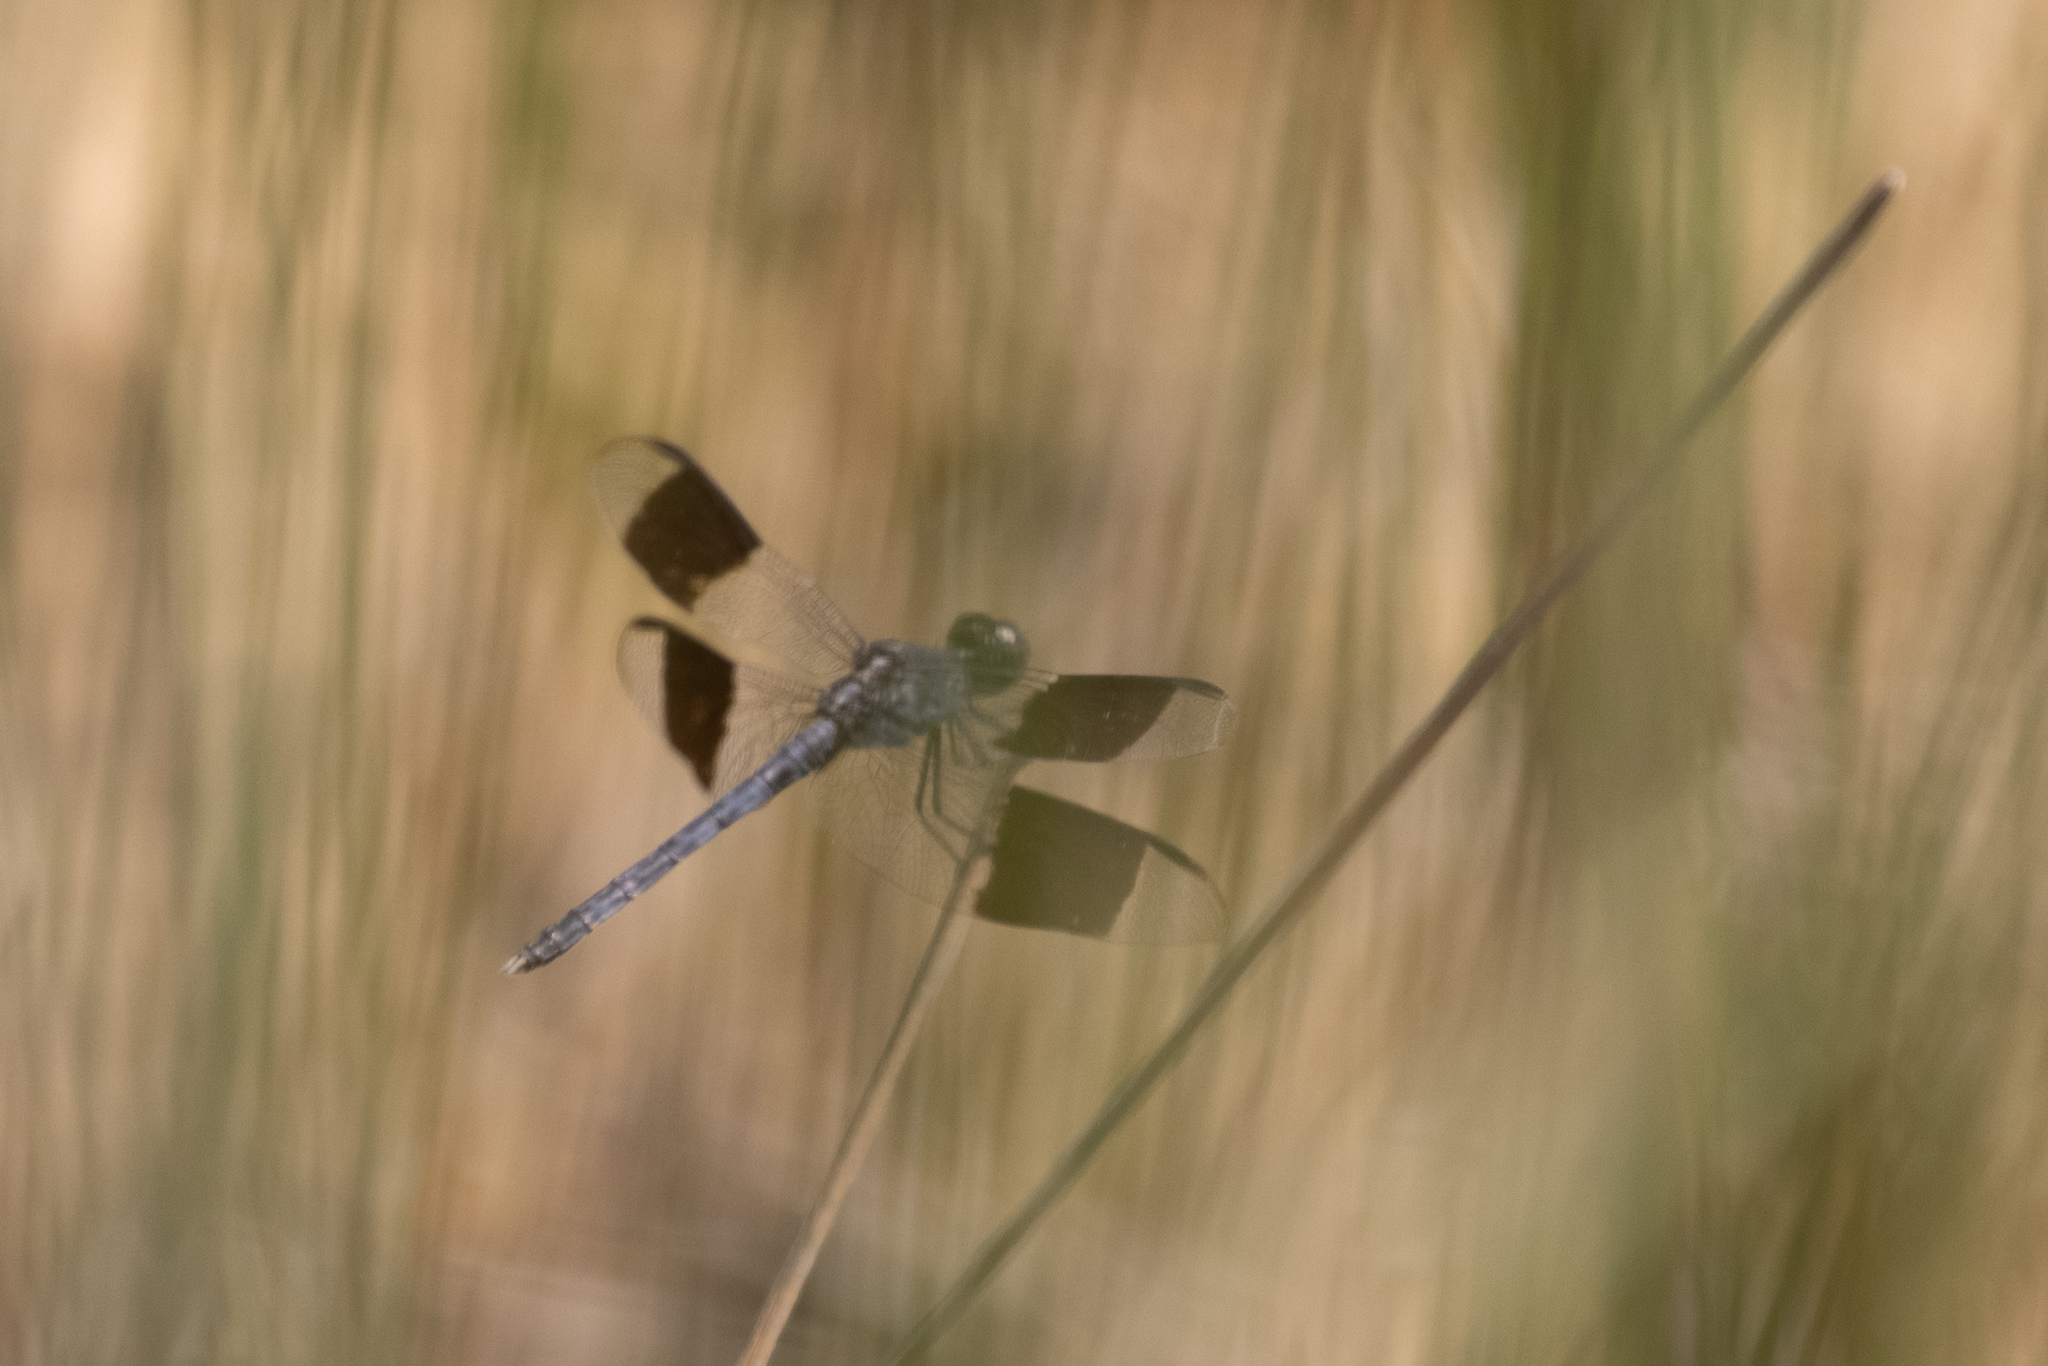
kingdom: Animalia
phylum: Arthropoda
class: Insecta
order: Odonata
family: Libellulidae
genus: Erythrodiplax
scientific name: Erythrodiplax umbrata
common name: Band-winged dragonlet
